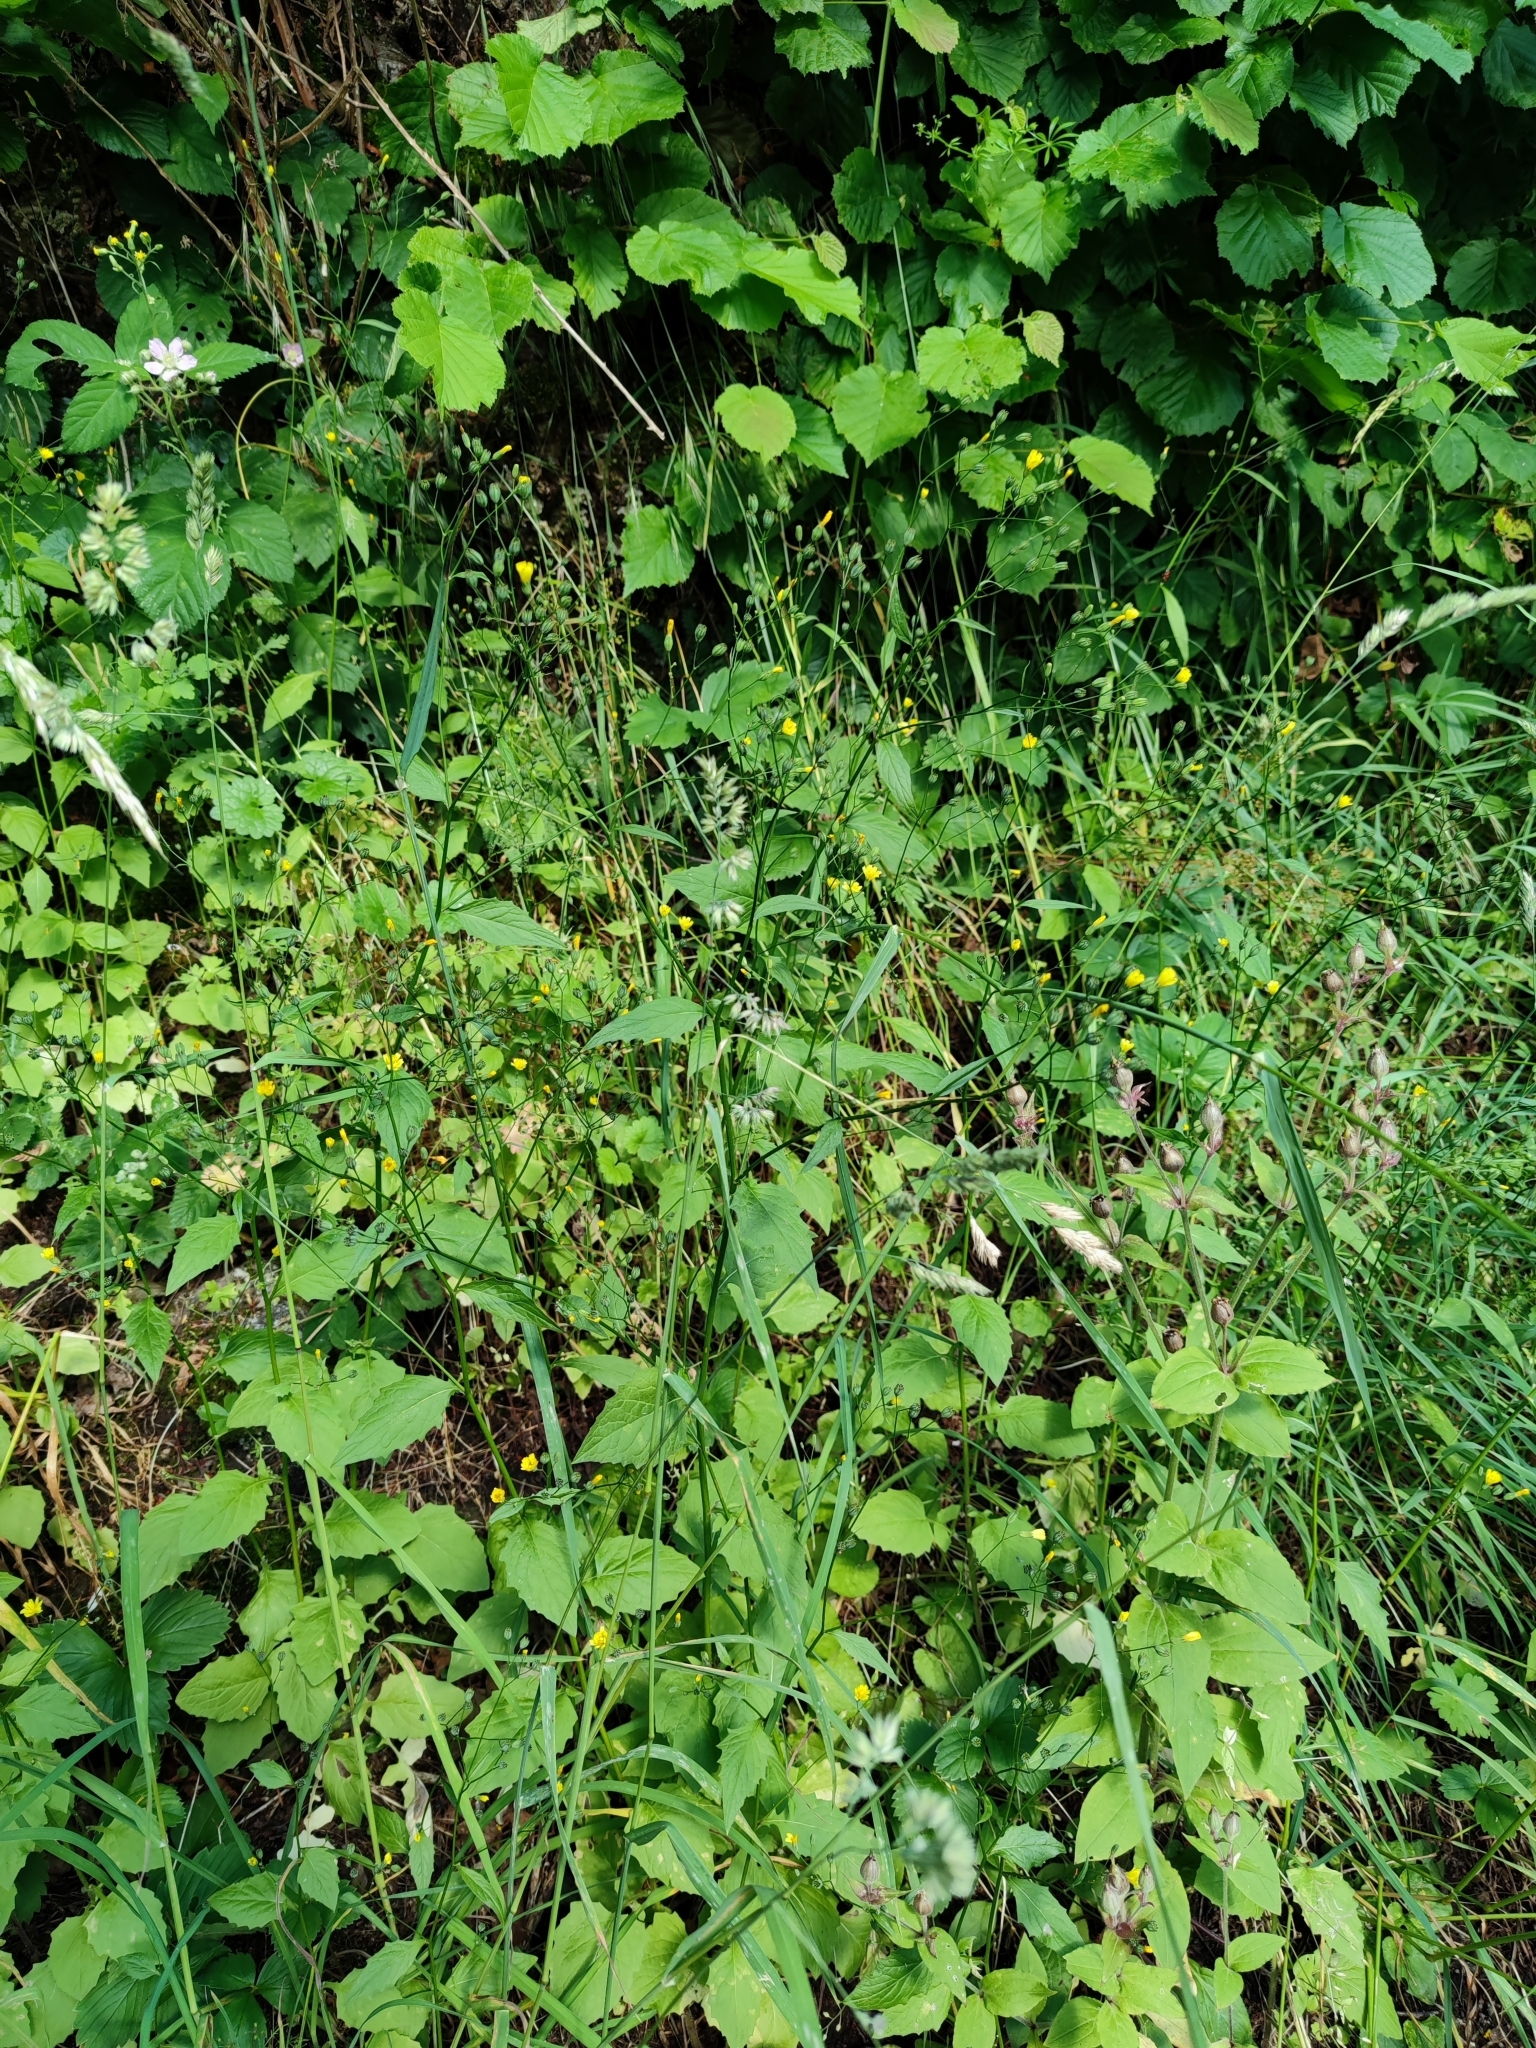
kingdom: Plantae
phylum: Tracheophyta
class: Magnoliopsida
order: Asterales
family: Asteraceae
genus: Lapsana
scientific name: Lapsana communis
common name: Nipplewort
